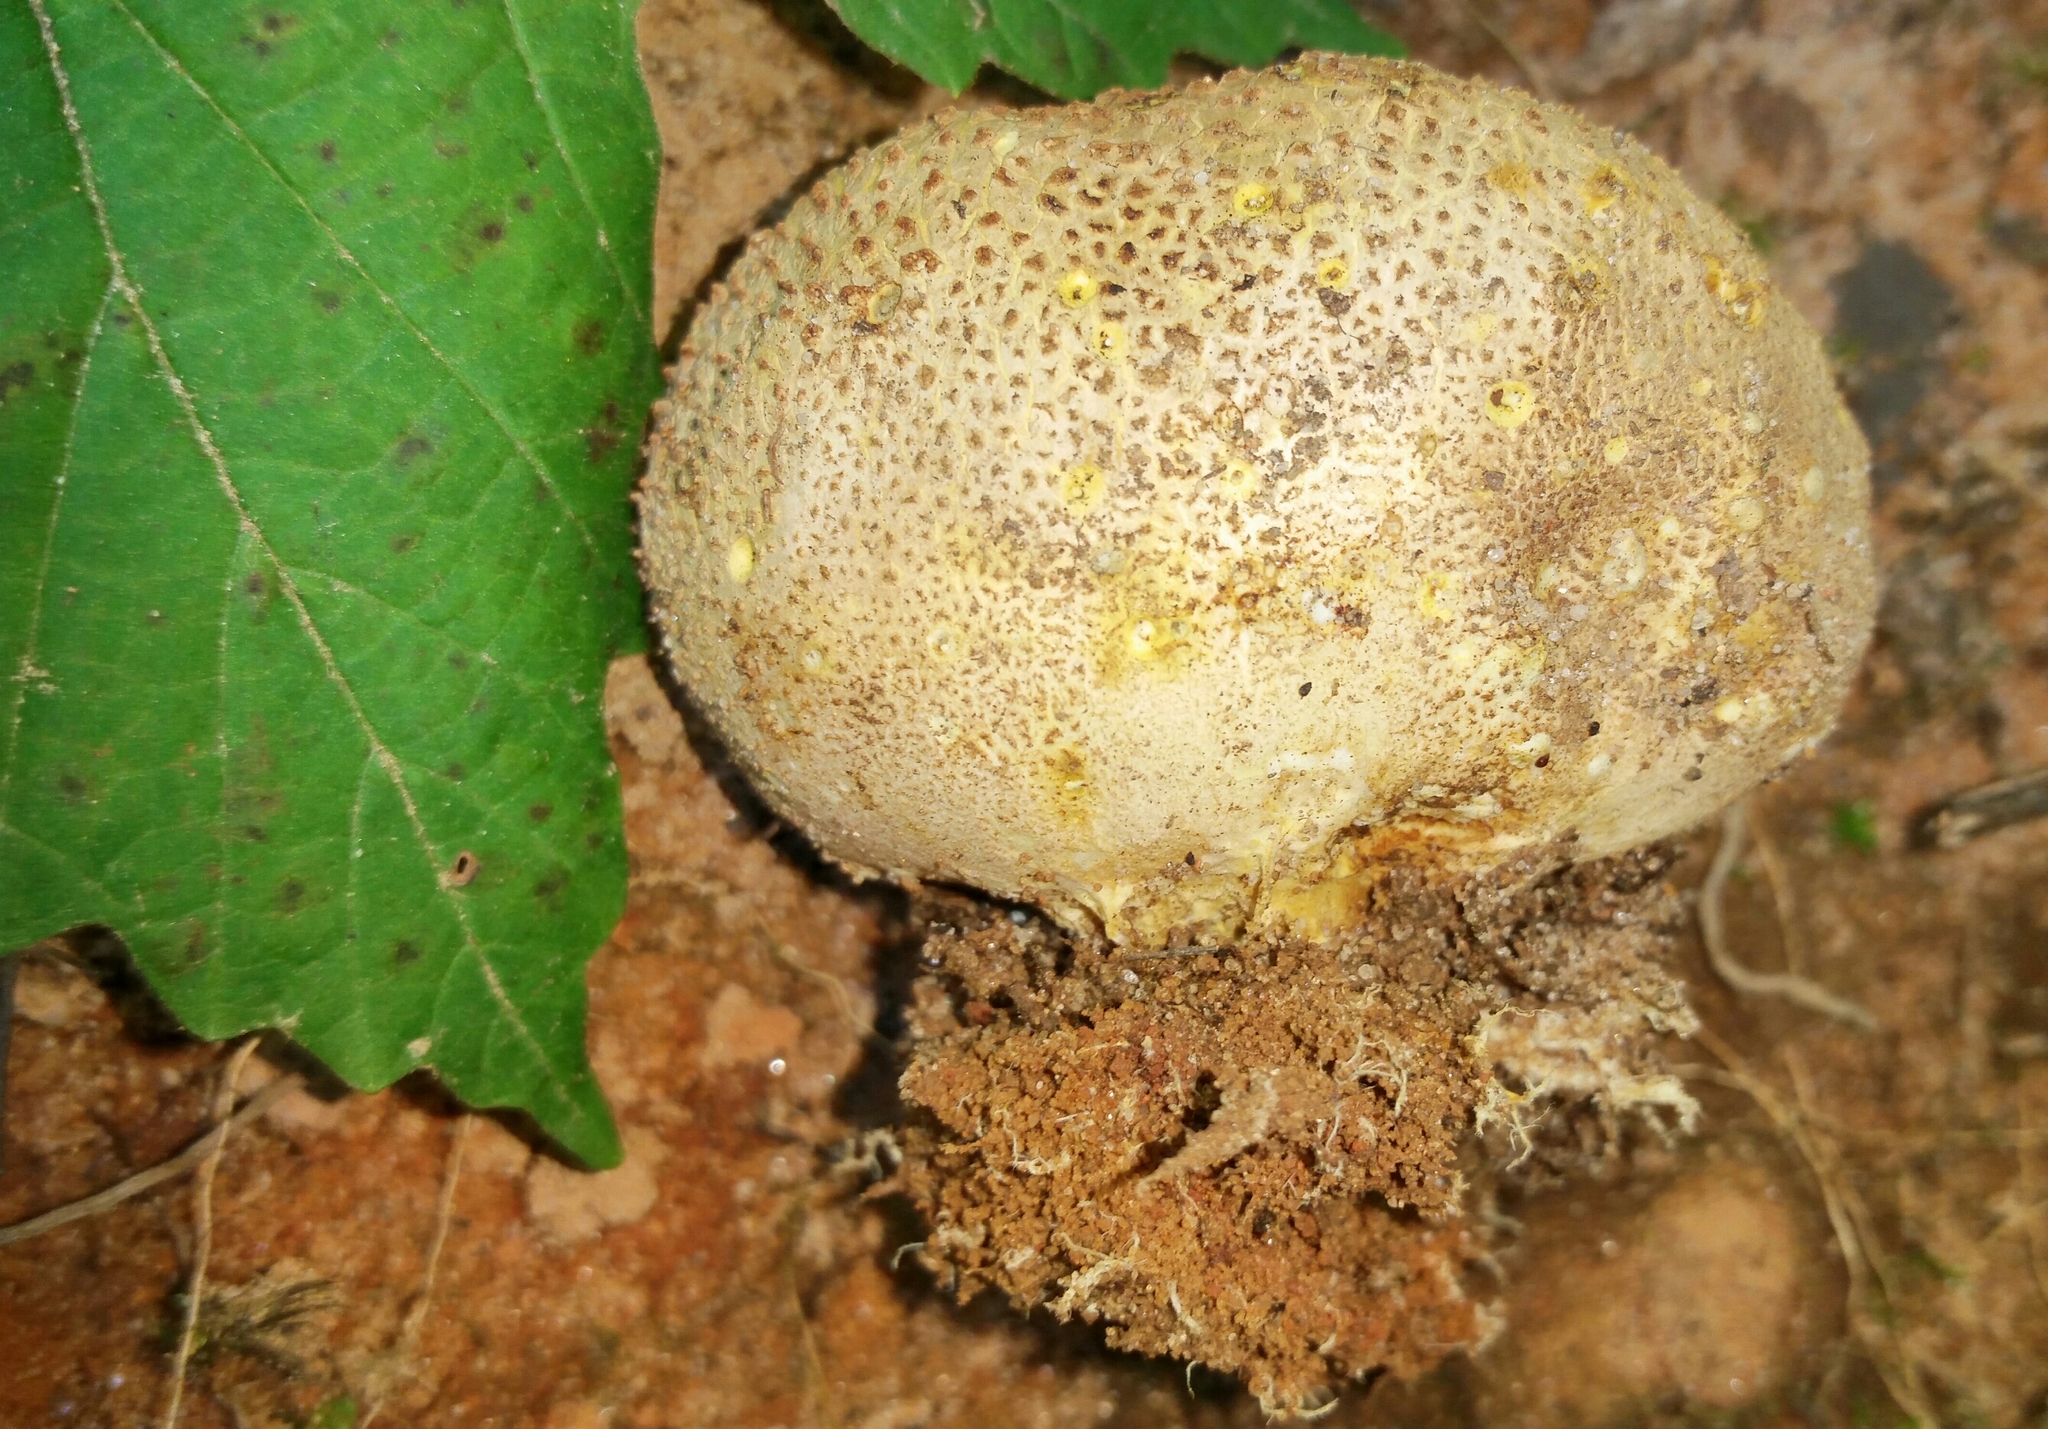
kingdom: Fungi
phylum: Basidiomycota
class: Agaricomycetes
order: Boletales
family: Sclerodermataceae
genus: Scleroderma
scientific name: Scleroderma citrinum
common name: Common earthball
